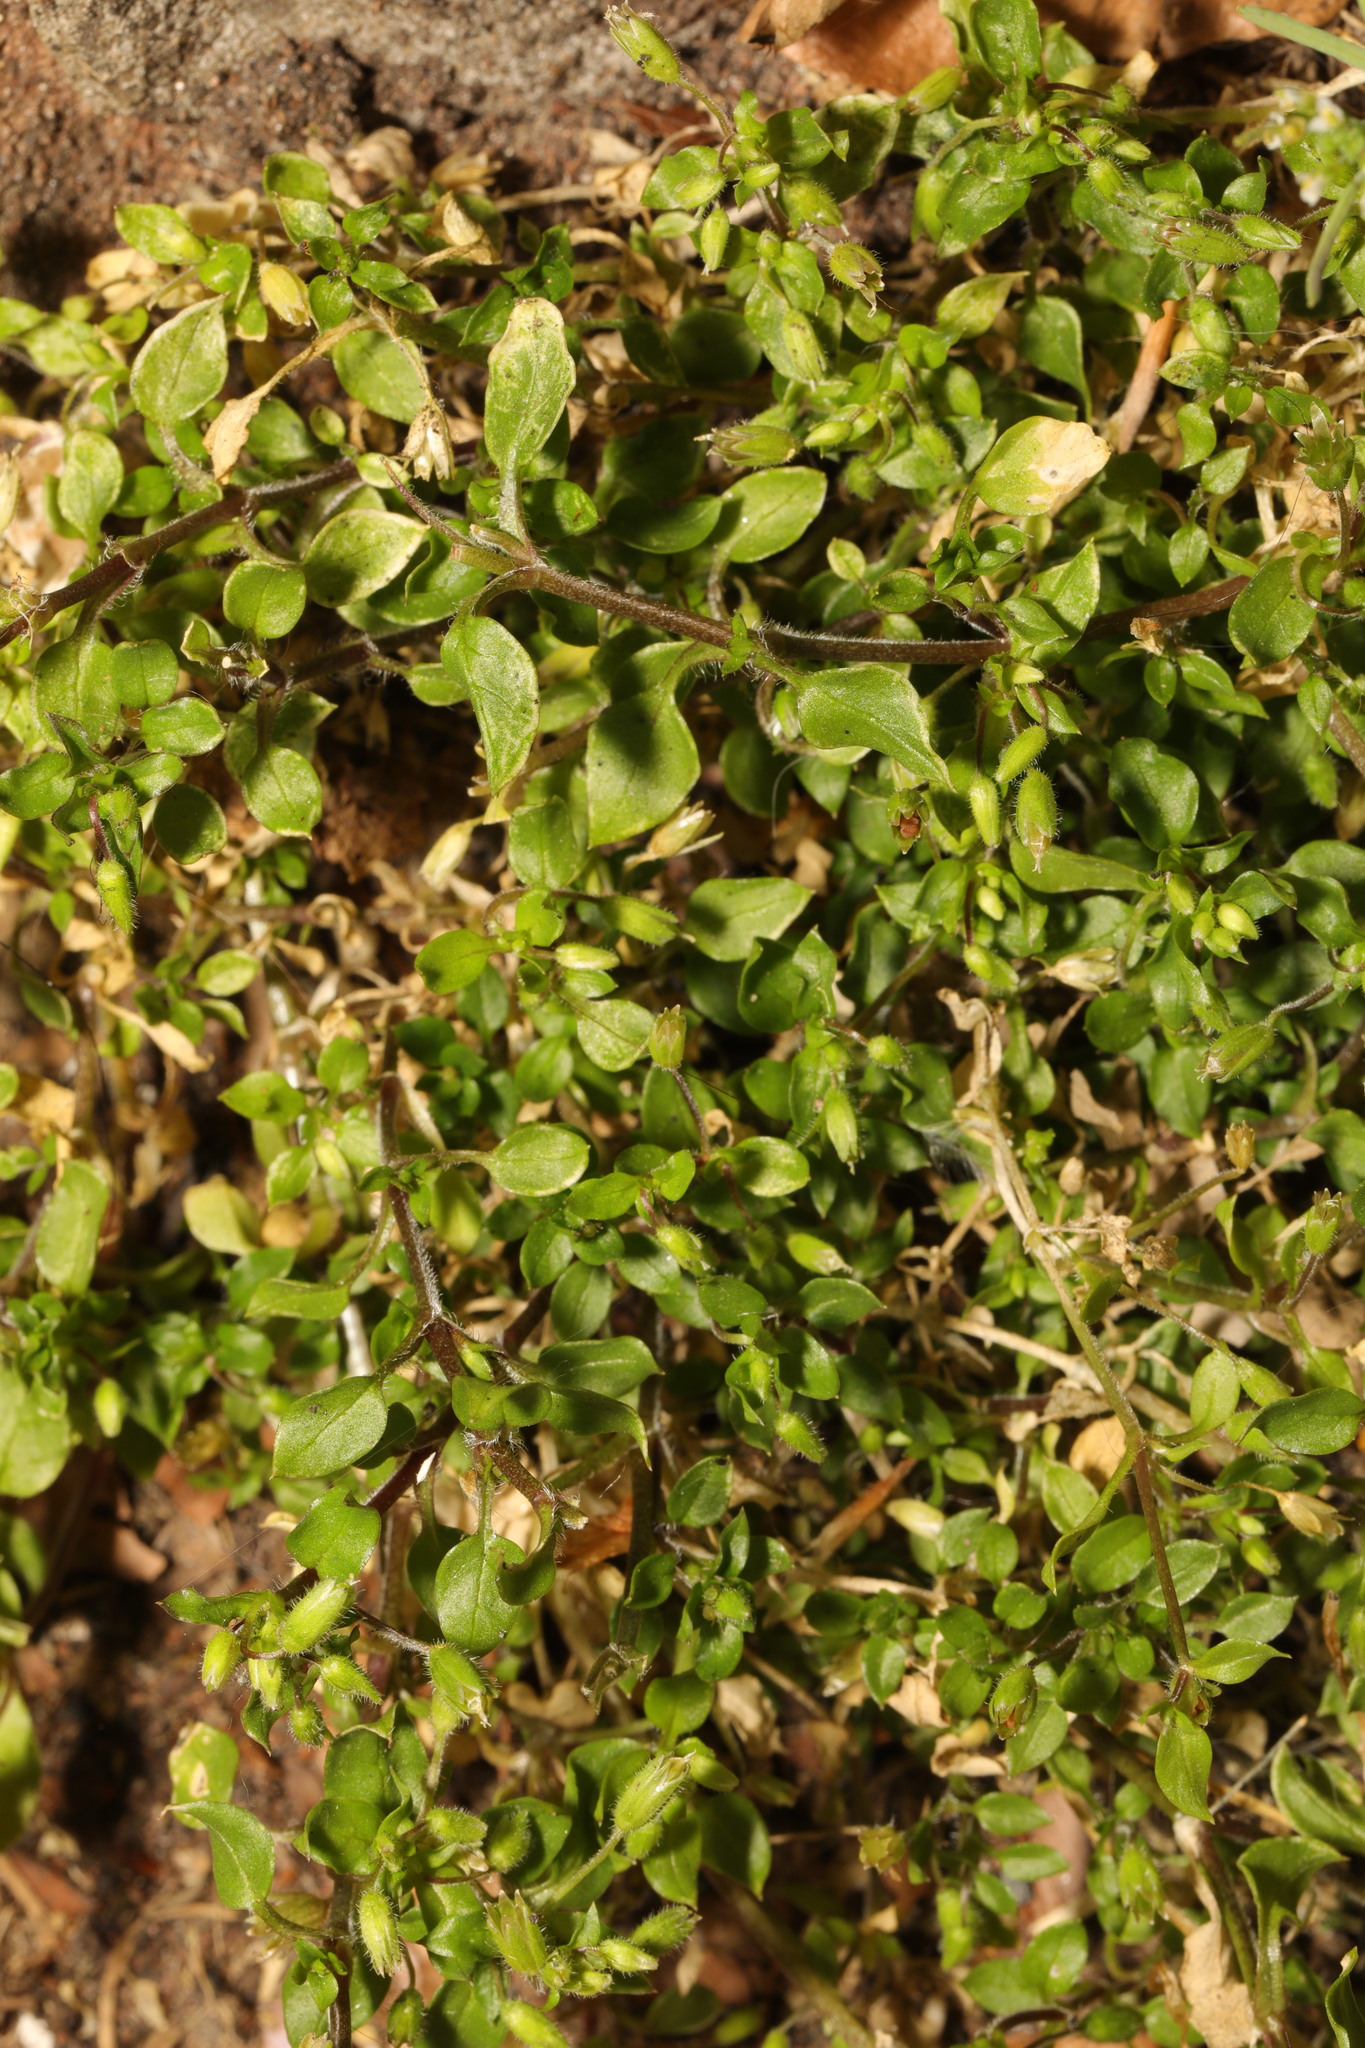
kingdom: Plantae
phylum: Tracheophyta
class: Magnoliopsida
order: Caryophyllales
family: Caryophyllaceae
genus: Stellaria
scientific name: Stellaria media
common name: Common chickweed
